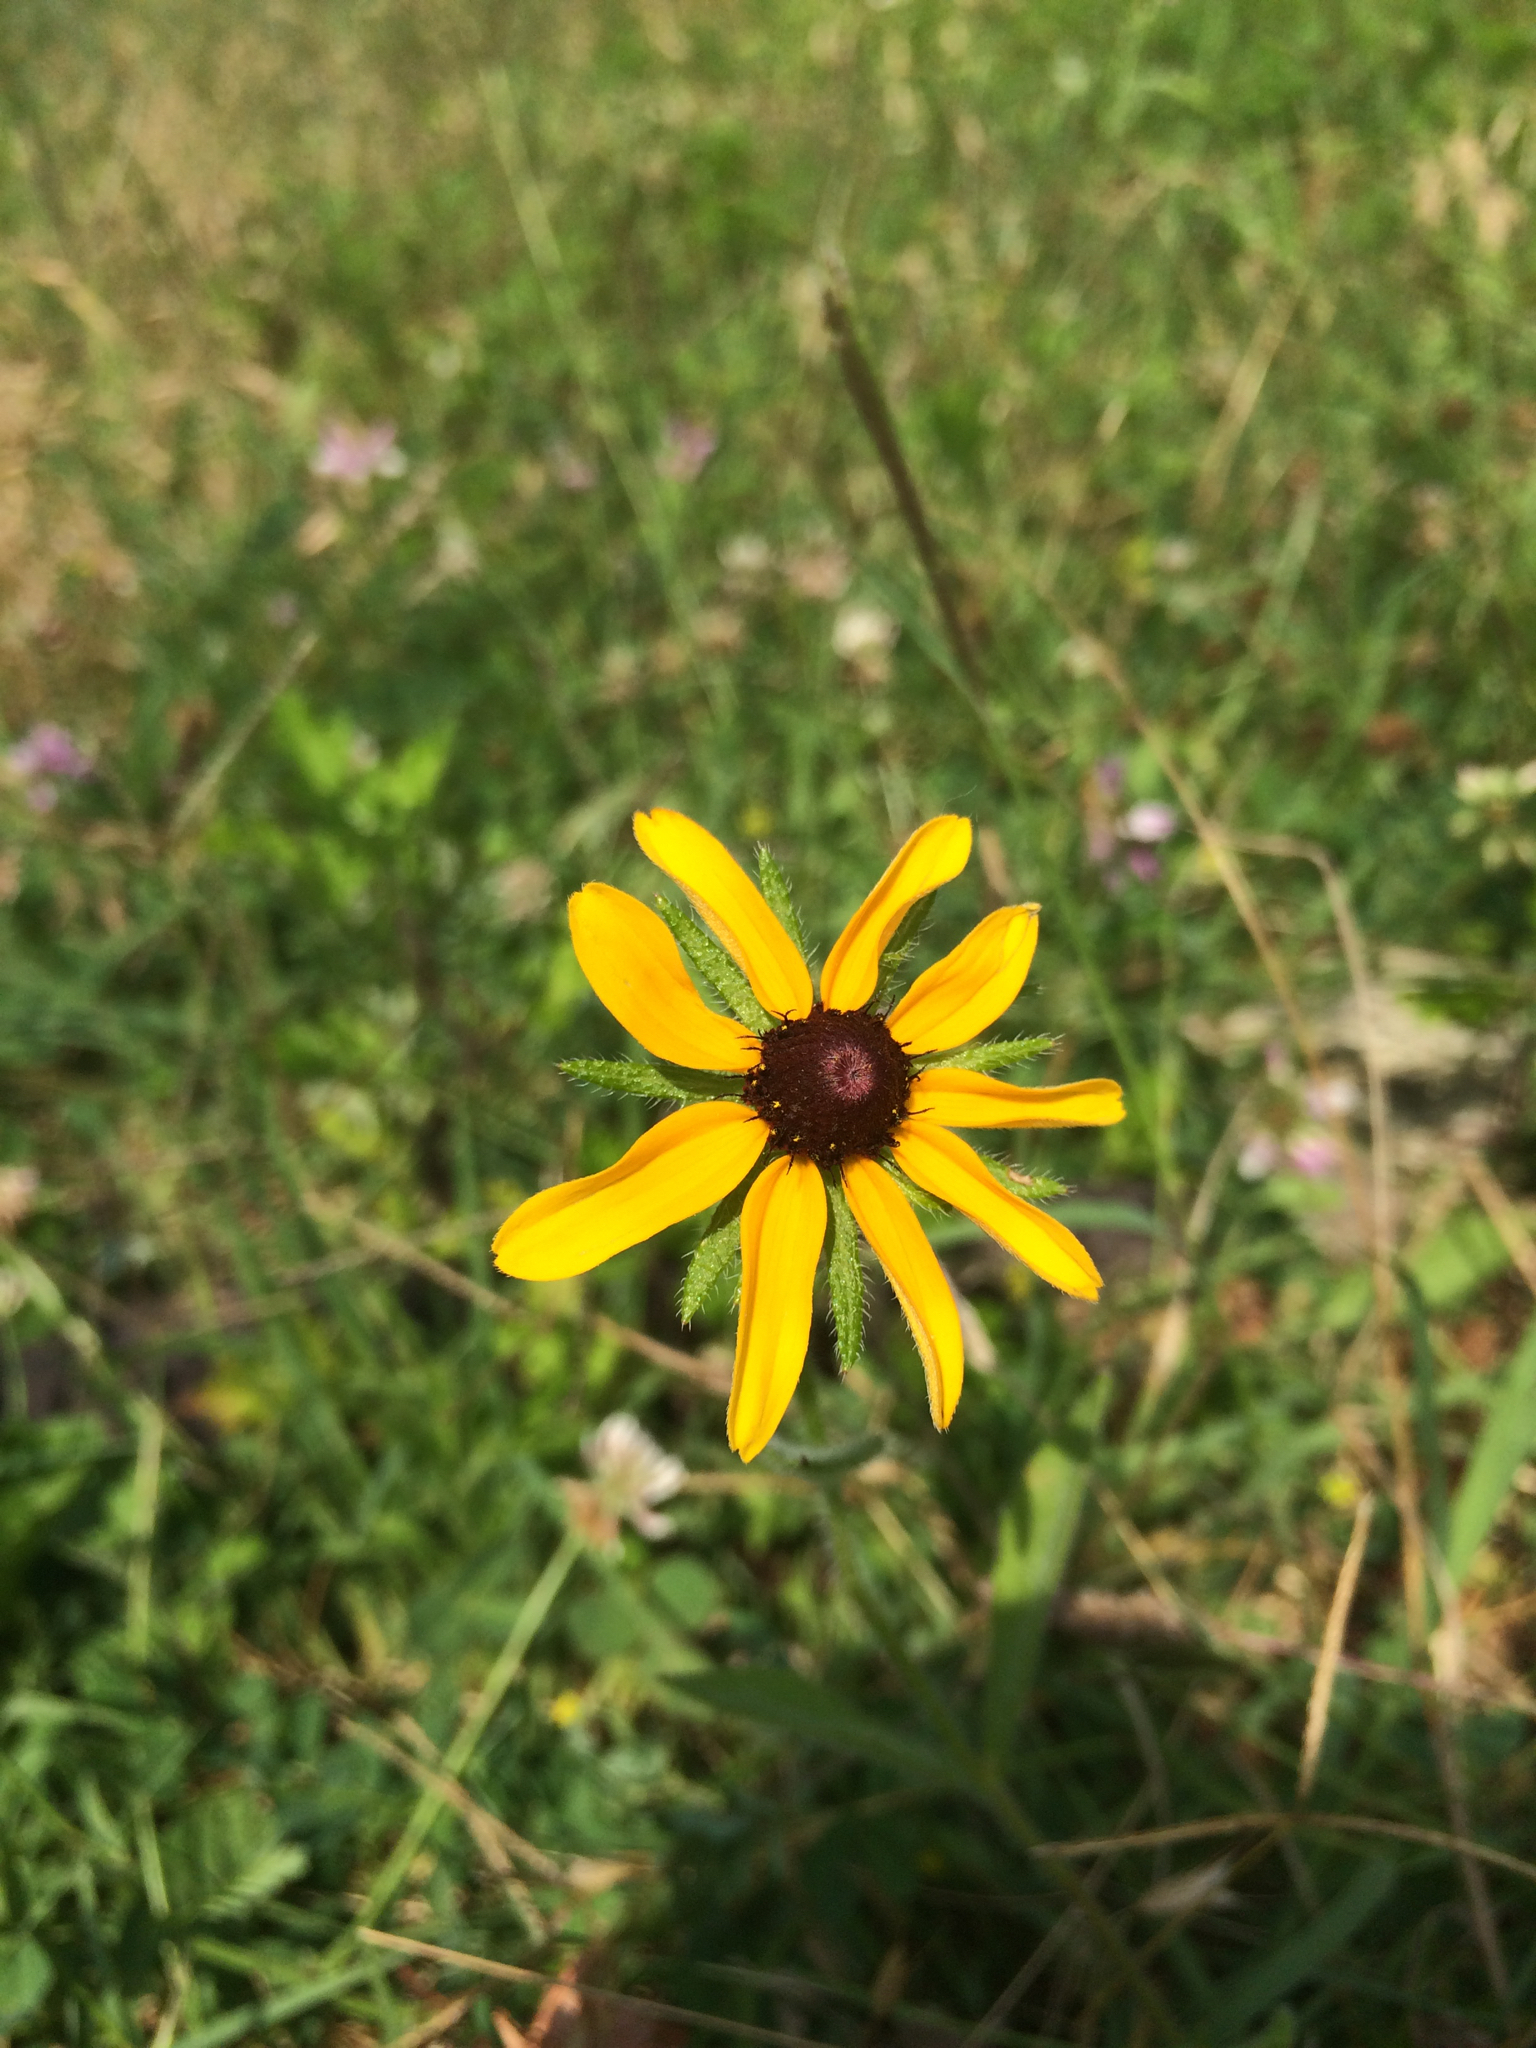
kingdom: Plantae
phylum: Tracheophyta
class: Magnoliopsida
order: Asterales
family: Asteraceae
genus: Rudbeckia
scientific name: Rudbeckia hirta
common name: Black-eyed-susan
